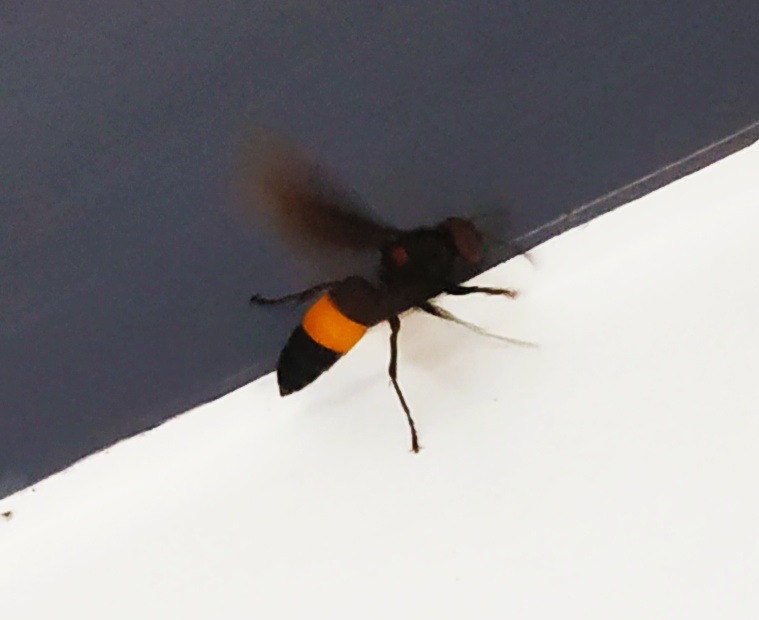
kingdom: Animalia
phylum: Arthropoda
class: Insecta
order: Hymenoptera
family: Vespidae
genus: Vespa
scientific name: Vespa tropica
